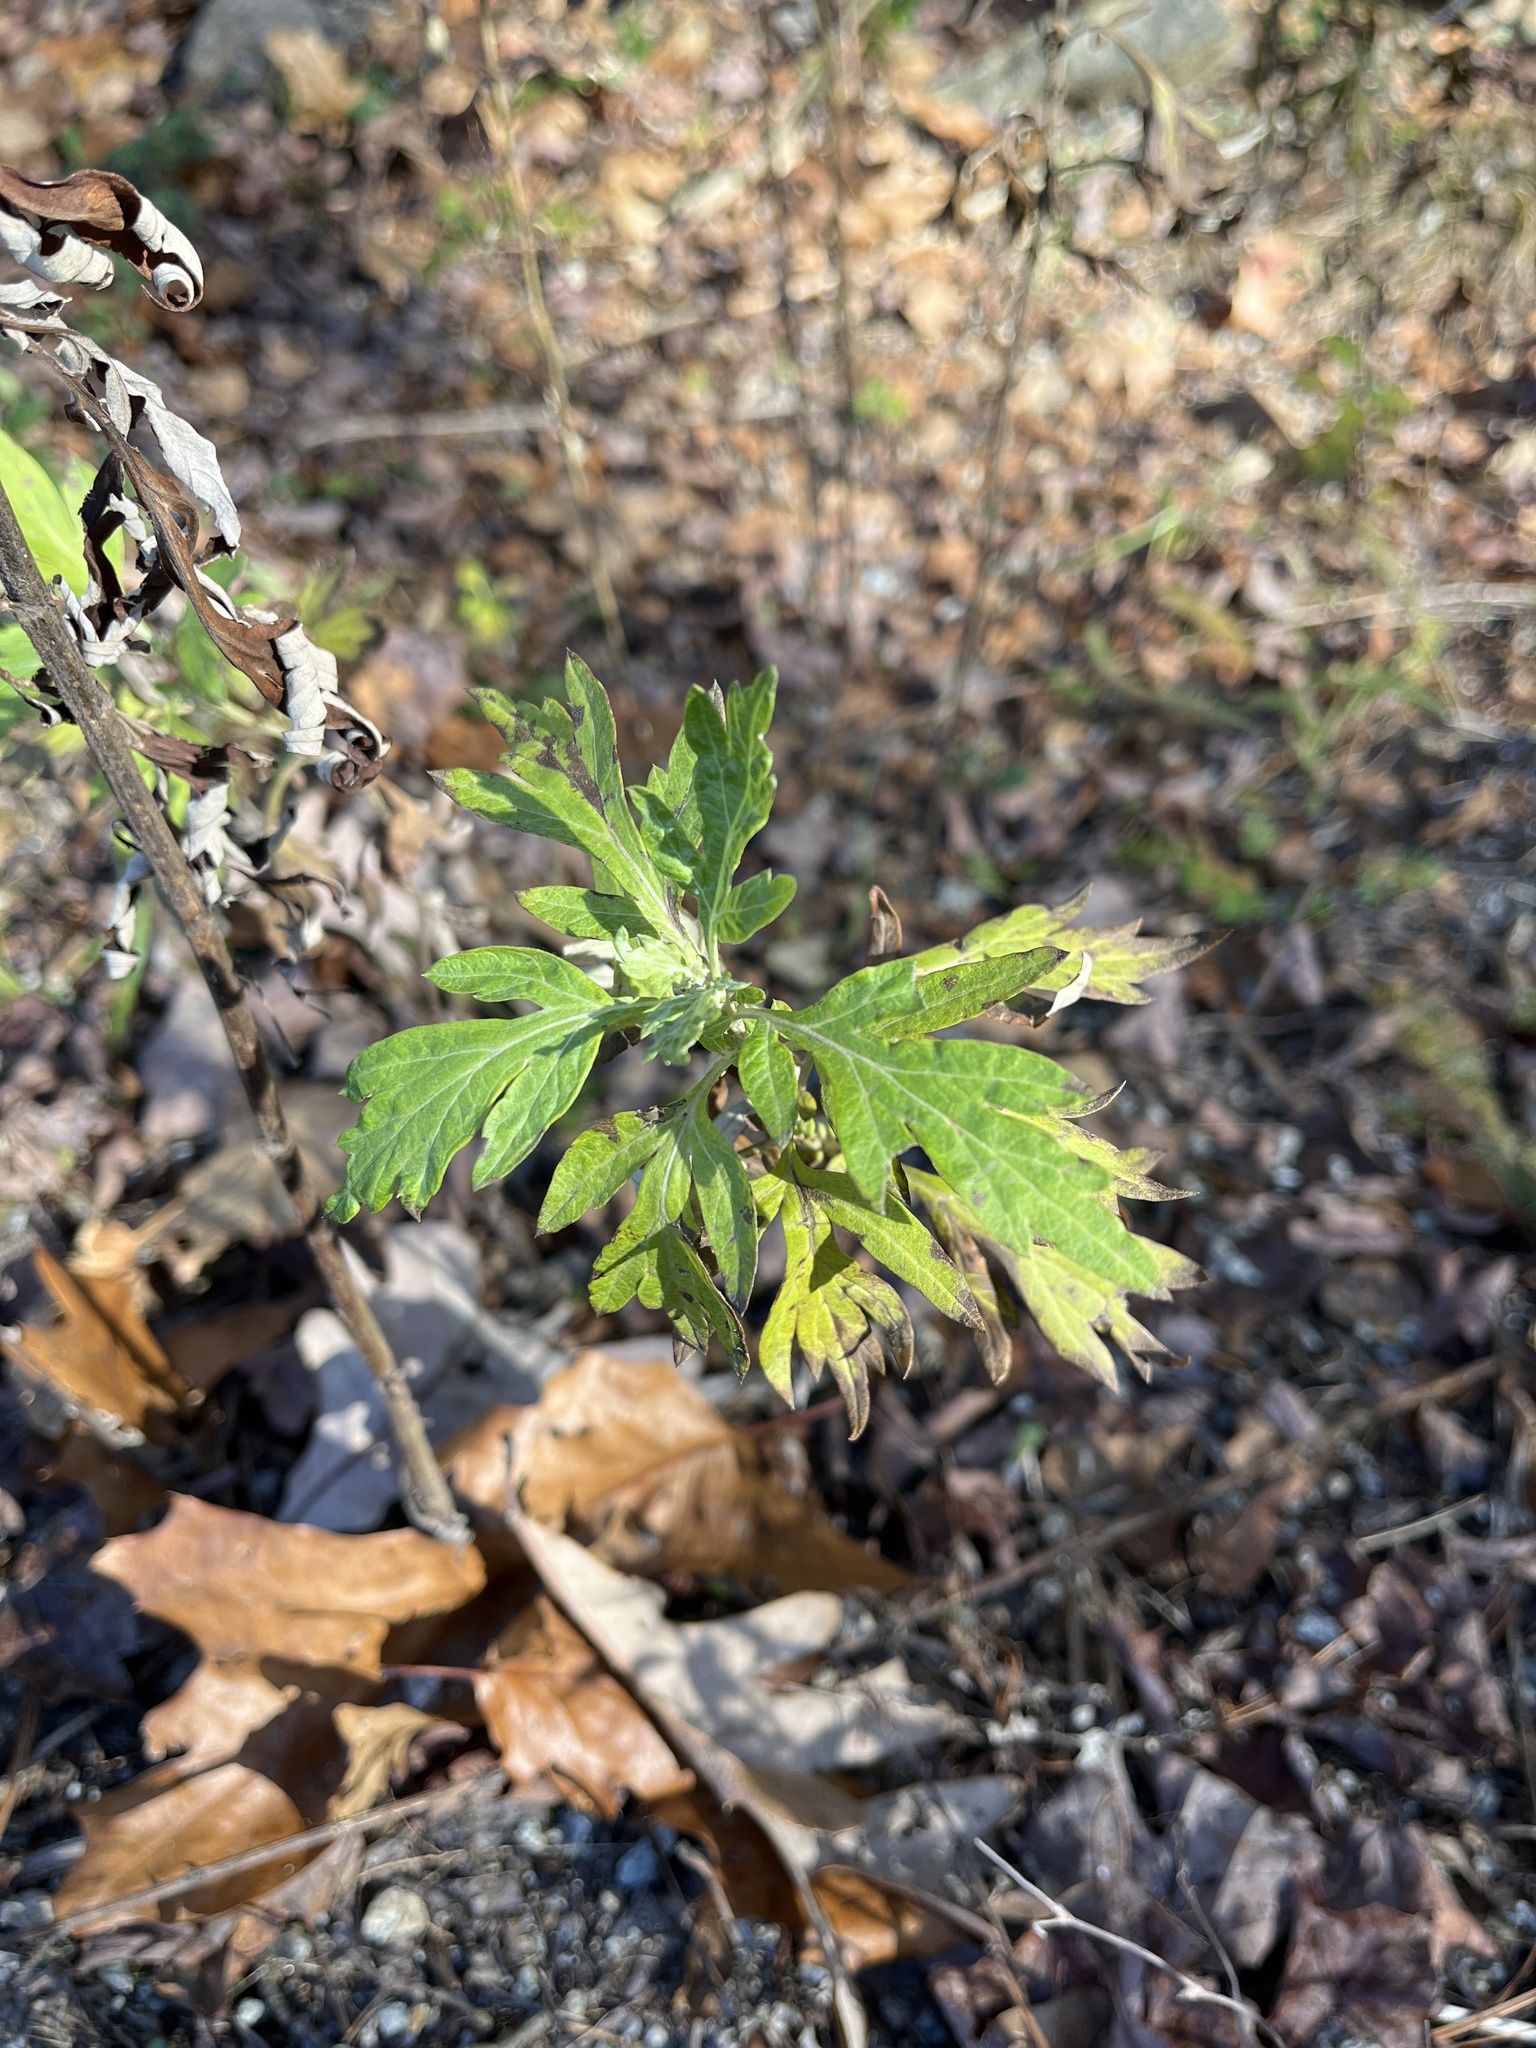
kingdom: Plantae
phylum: Tracheophyta
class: Magnoliopsida
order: Asterales
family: Asteraceae
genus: Artemisia
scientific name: Artemisia vulgaris
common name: Mugwort
